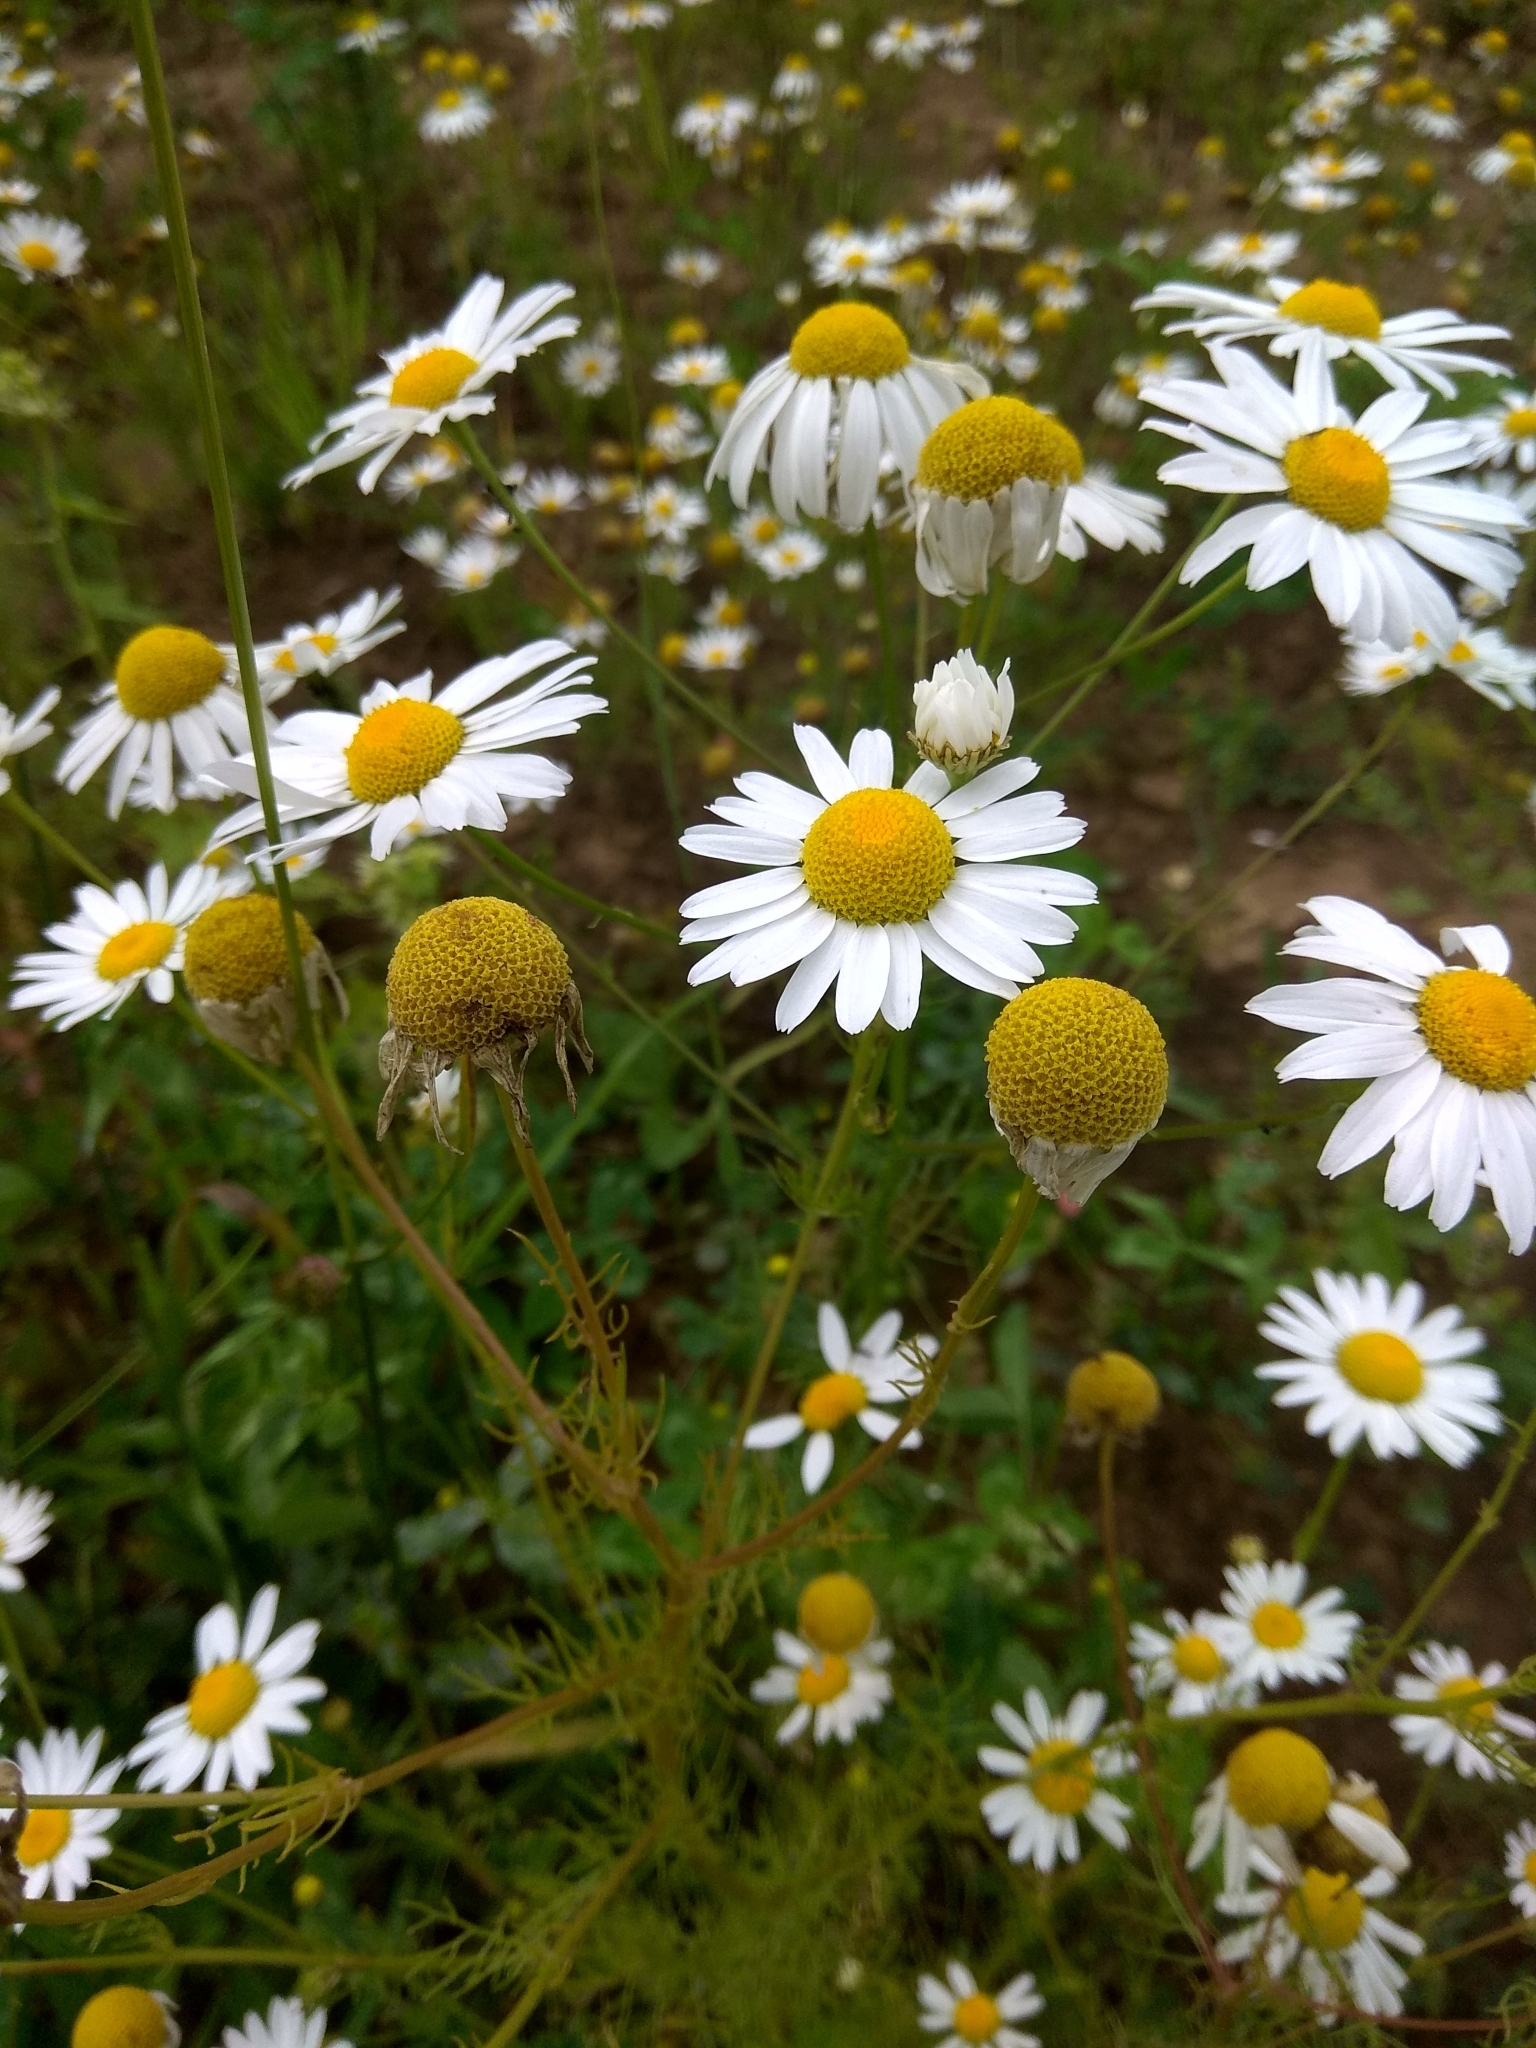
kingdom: Plantae
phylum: Tracheophyta
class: Magnoliopsida
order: Asterales
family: Asteraceae
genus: Tripleurospermum
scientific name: Tripleurospermum inodorum
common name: Scentless mayweed
